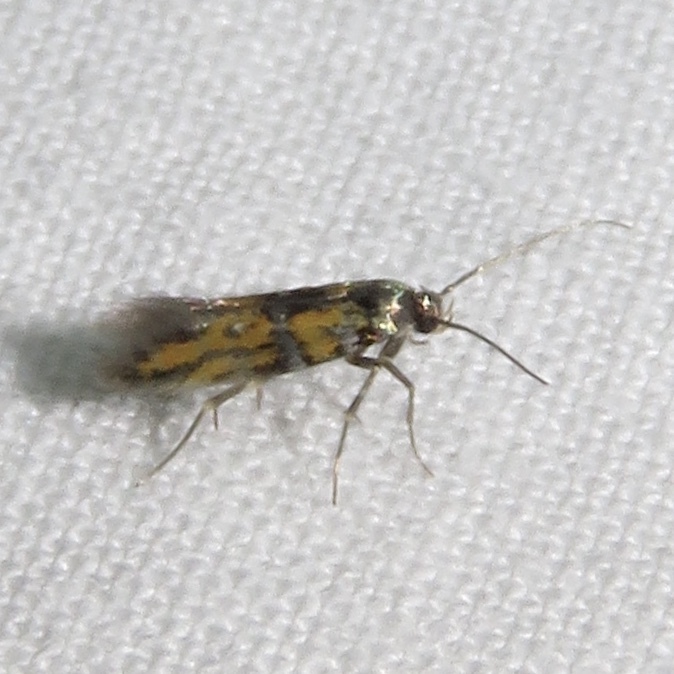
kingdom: Animalia
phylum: Arthropoda
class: Insecta
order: Lepidoptera
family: Gelechiidae
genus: Chrysoesthia
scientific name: Chrysoesthia drurella
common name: Flame neb
